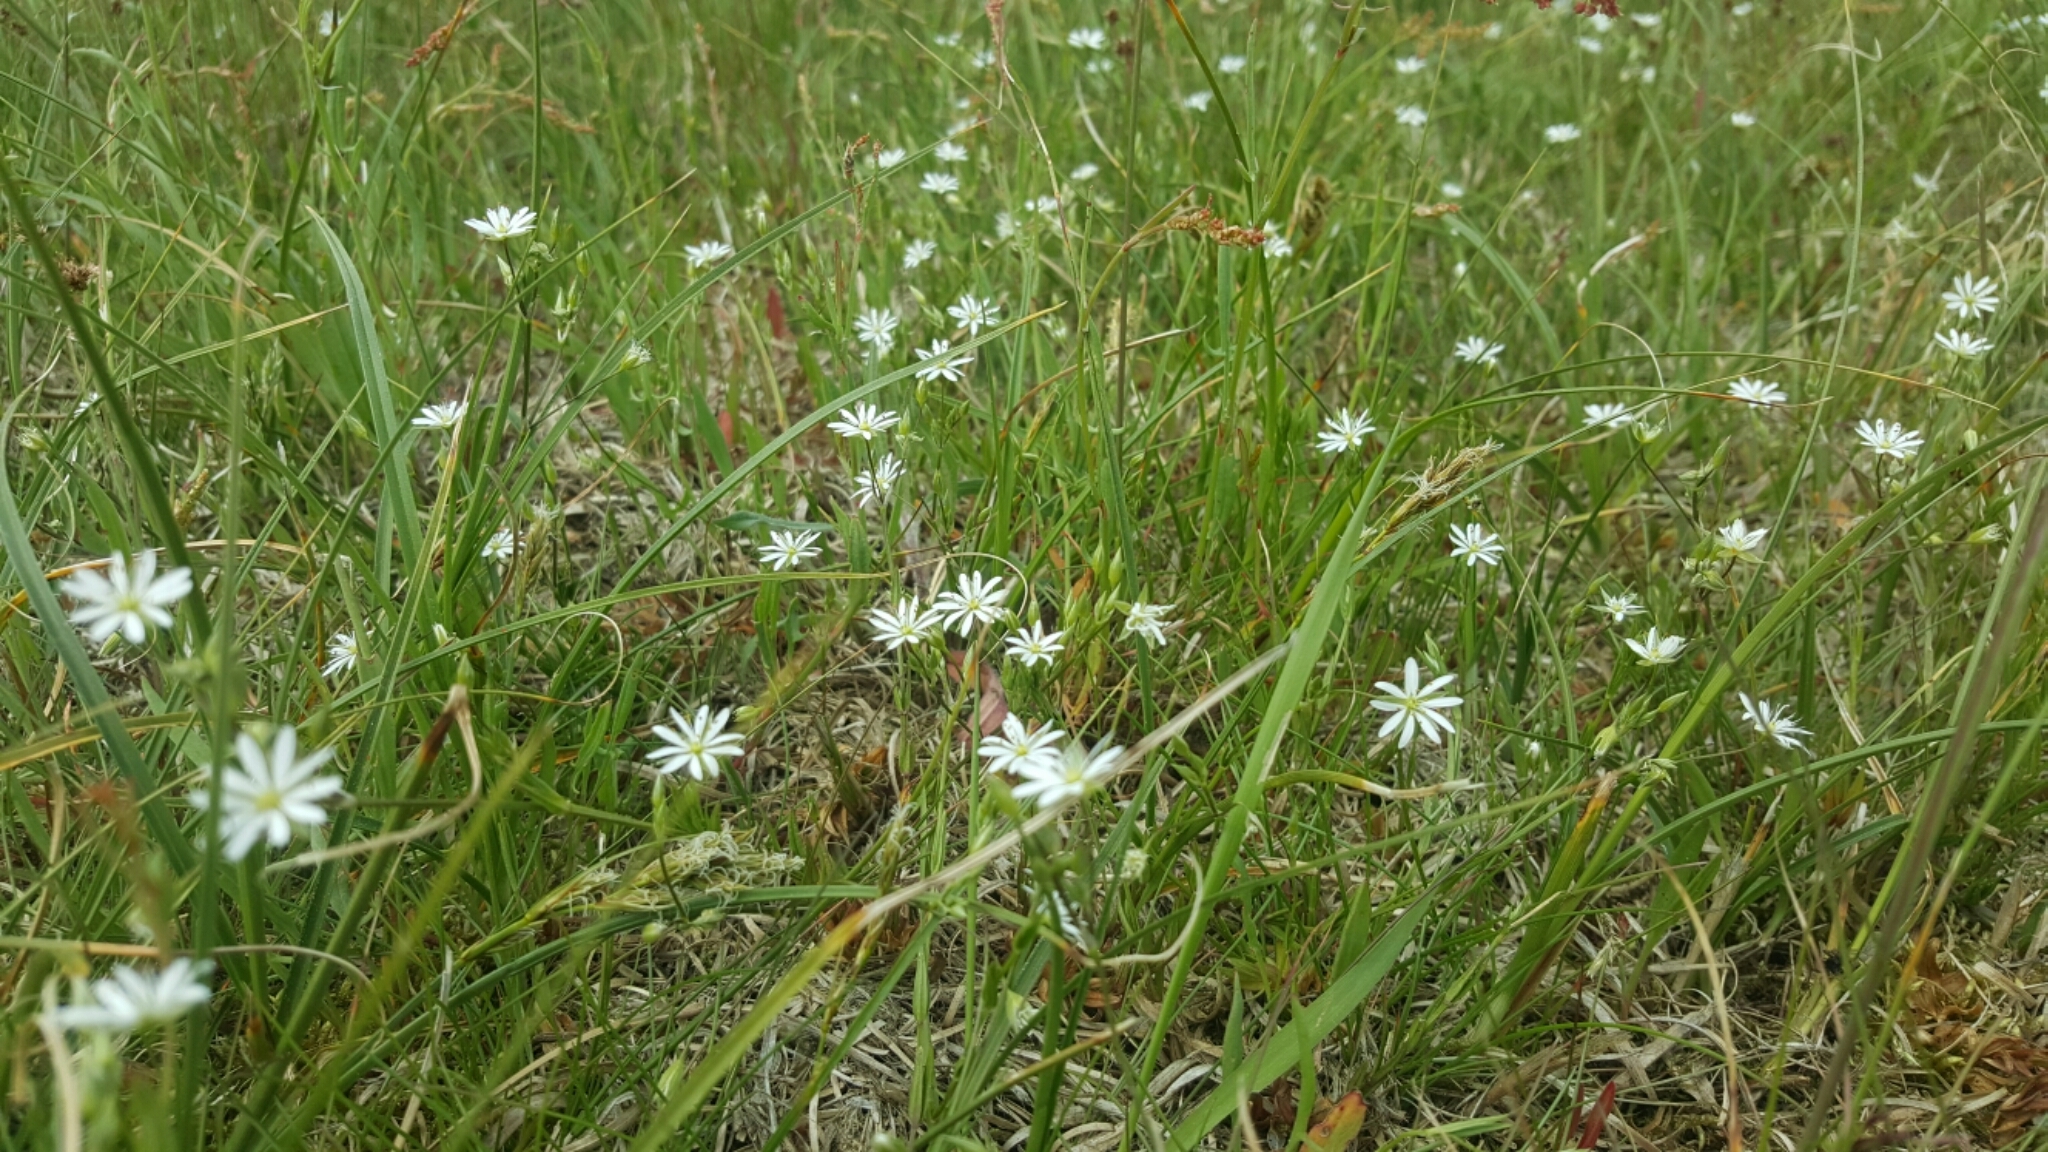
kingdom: Plantae
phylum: Tracheophyta
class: Magnoliopsida
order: Caryophyllales
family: Caryophyllaceae
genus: Stellaria
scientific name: Stellaria graminea
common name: Grass-like starwort
